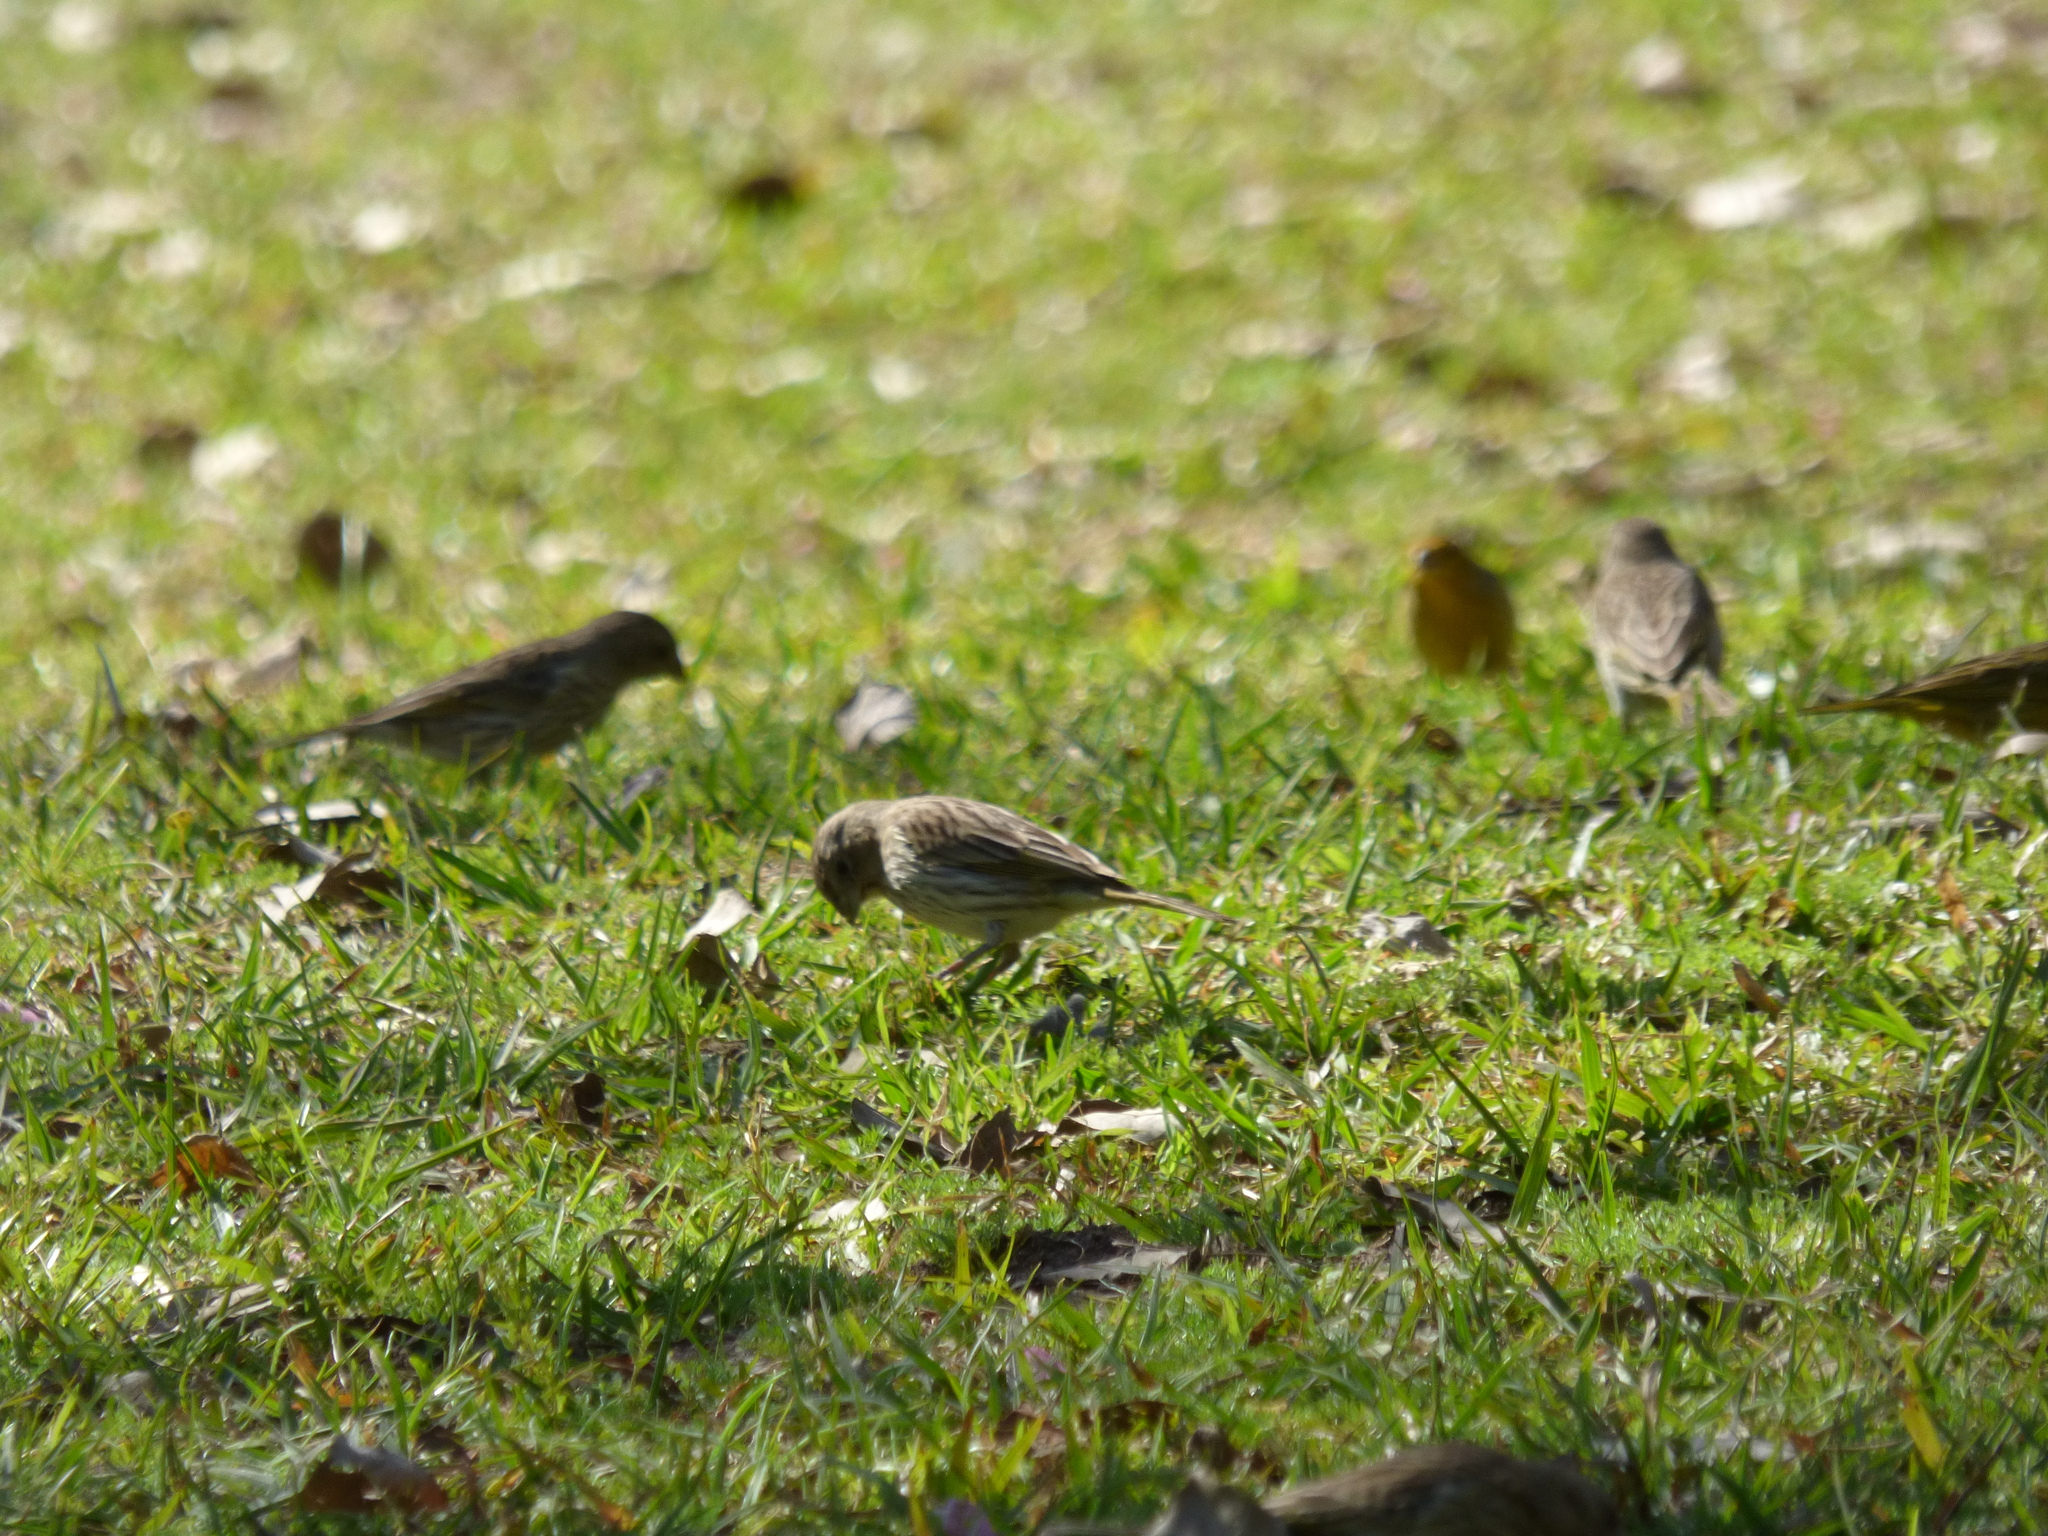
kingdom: Animalia
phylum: Chordata
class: Aves
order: Passeriformes
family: Thraupidae
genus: Sicalis
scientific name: Sicalis flaveola
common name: Saffron finch
